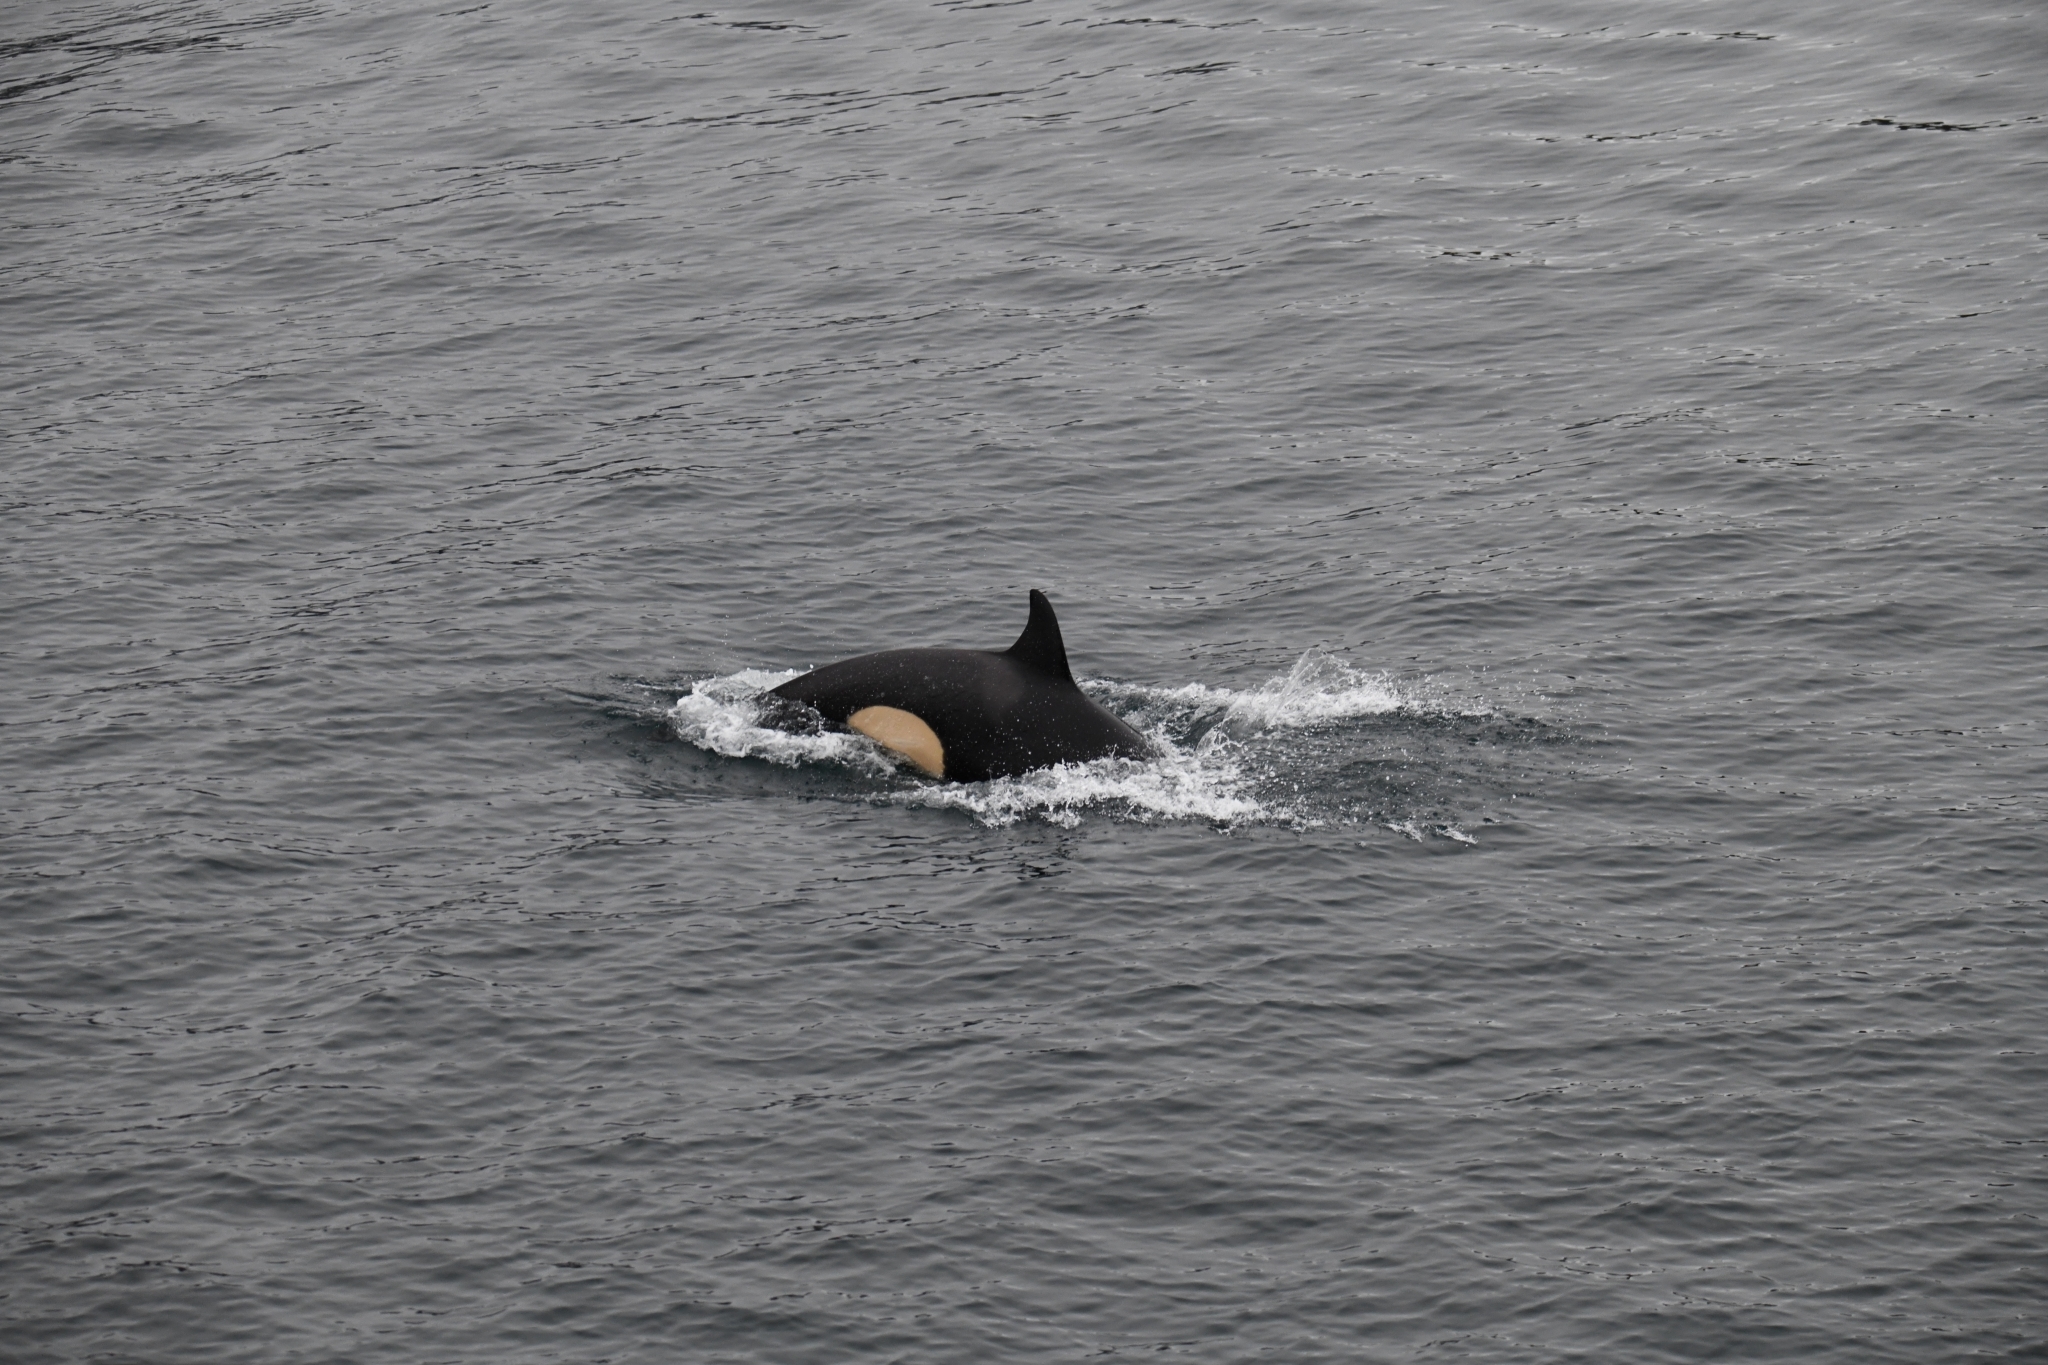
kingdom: Animalia
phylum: Chordata
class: Mammalia
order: Cetacea
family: Delphinidae
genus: Orcinus
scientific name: Orcinus orca
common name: Killer whale
